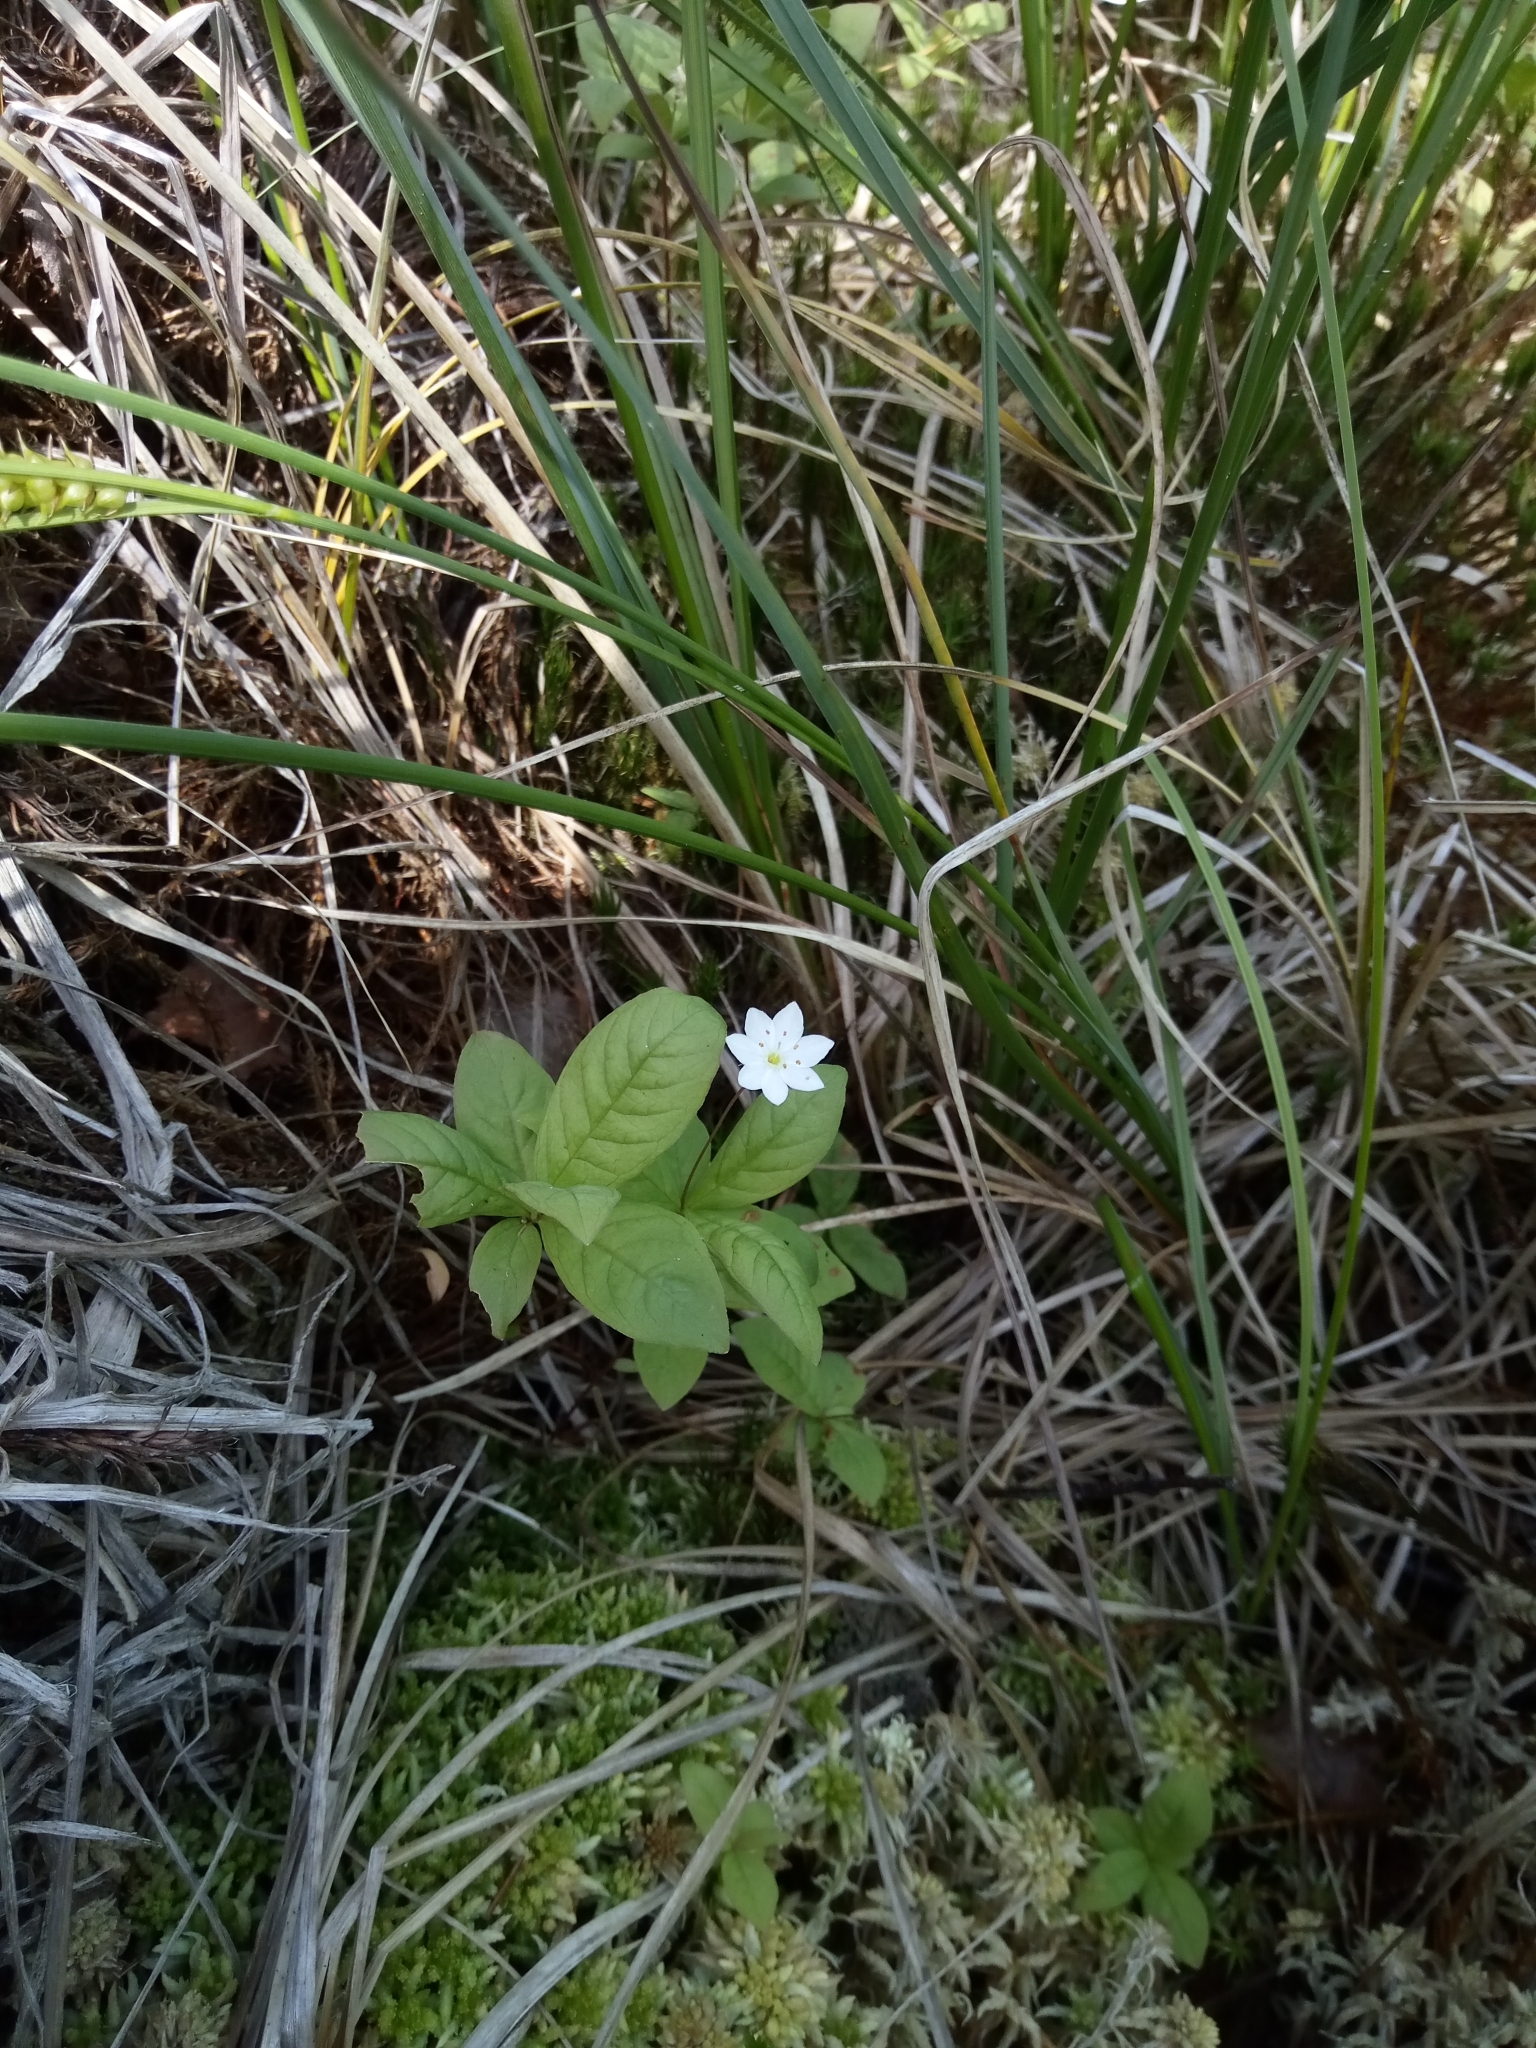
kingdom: Plantae
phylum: Tracheophyta
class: Magnoliopsida
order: Ericales
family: Primulaceae
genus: Lysimachia
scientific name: Lysimachia europaea
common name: Arctic starflower
